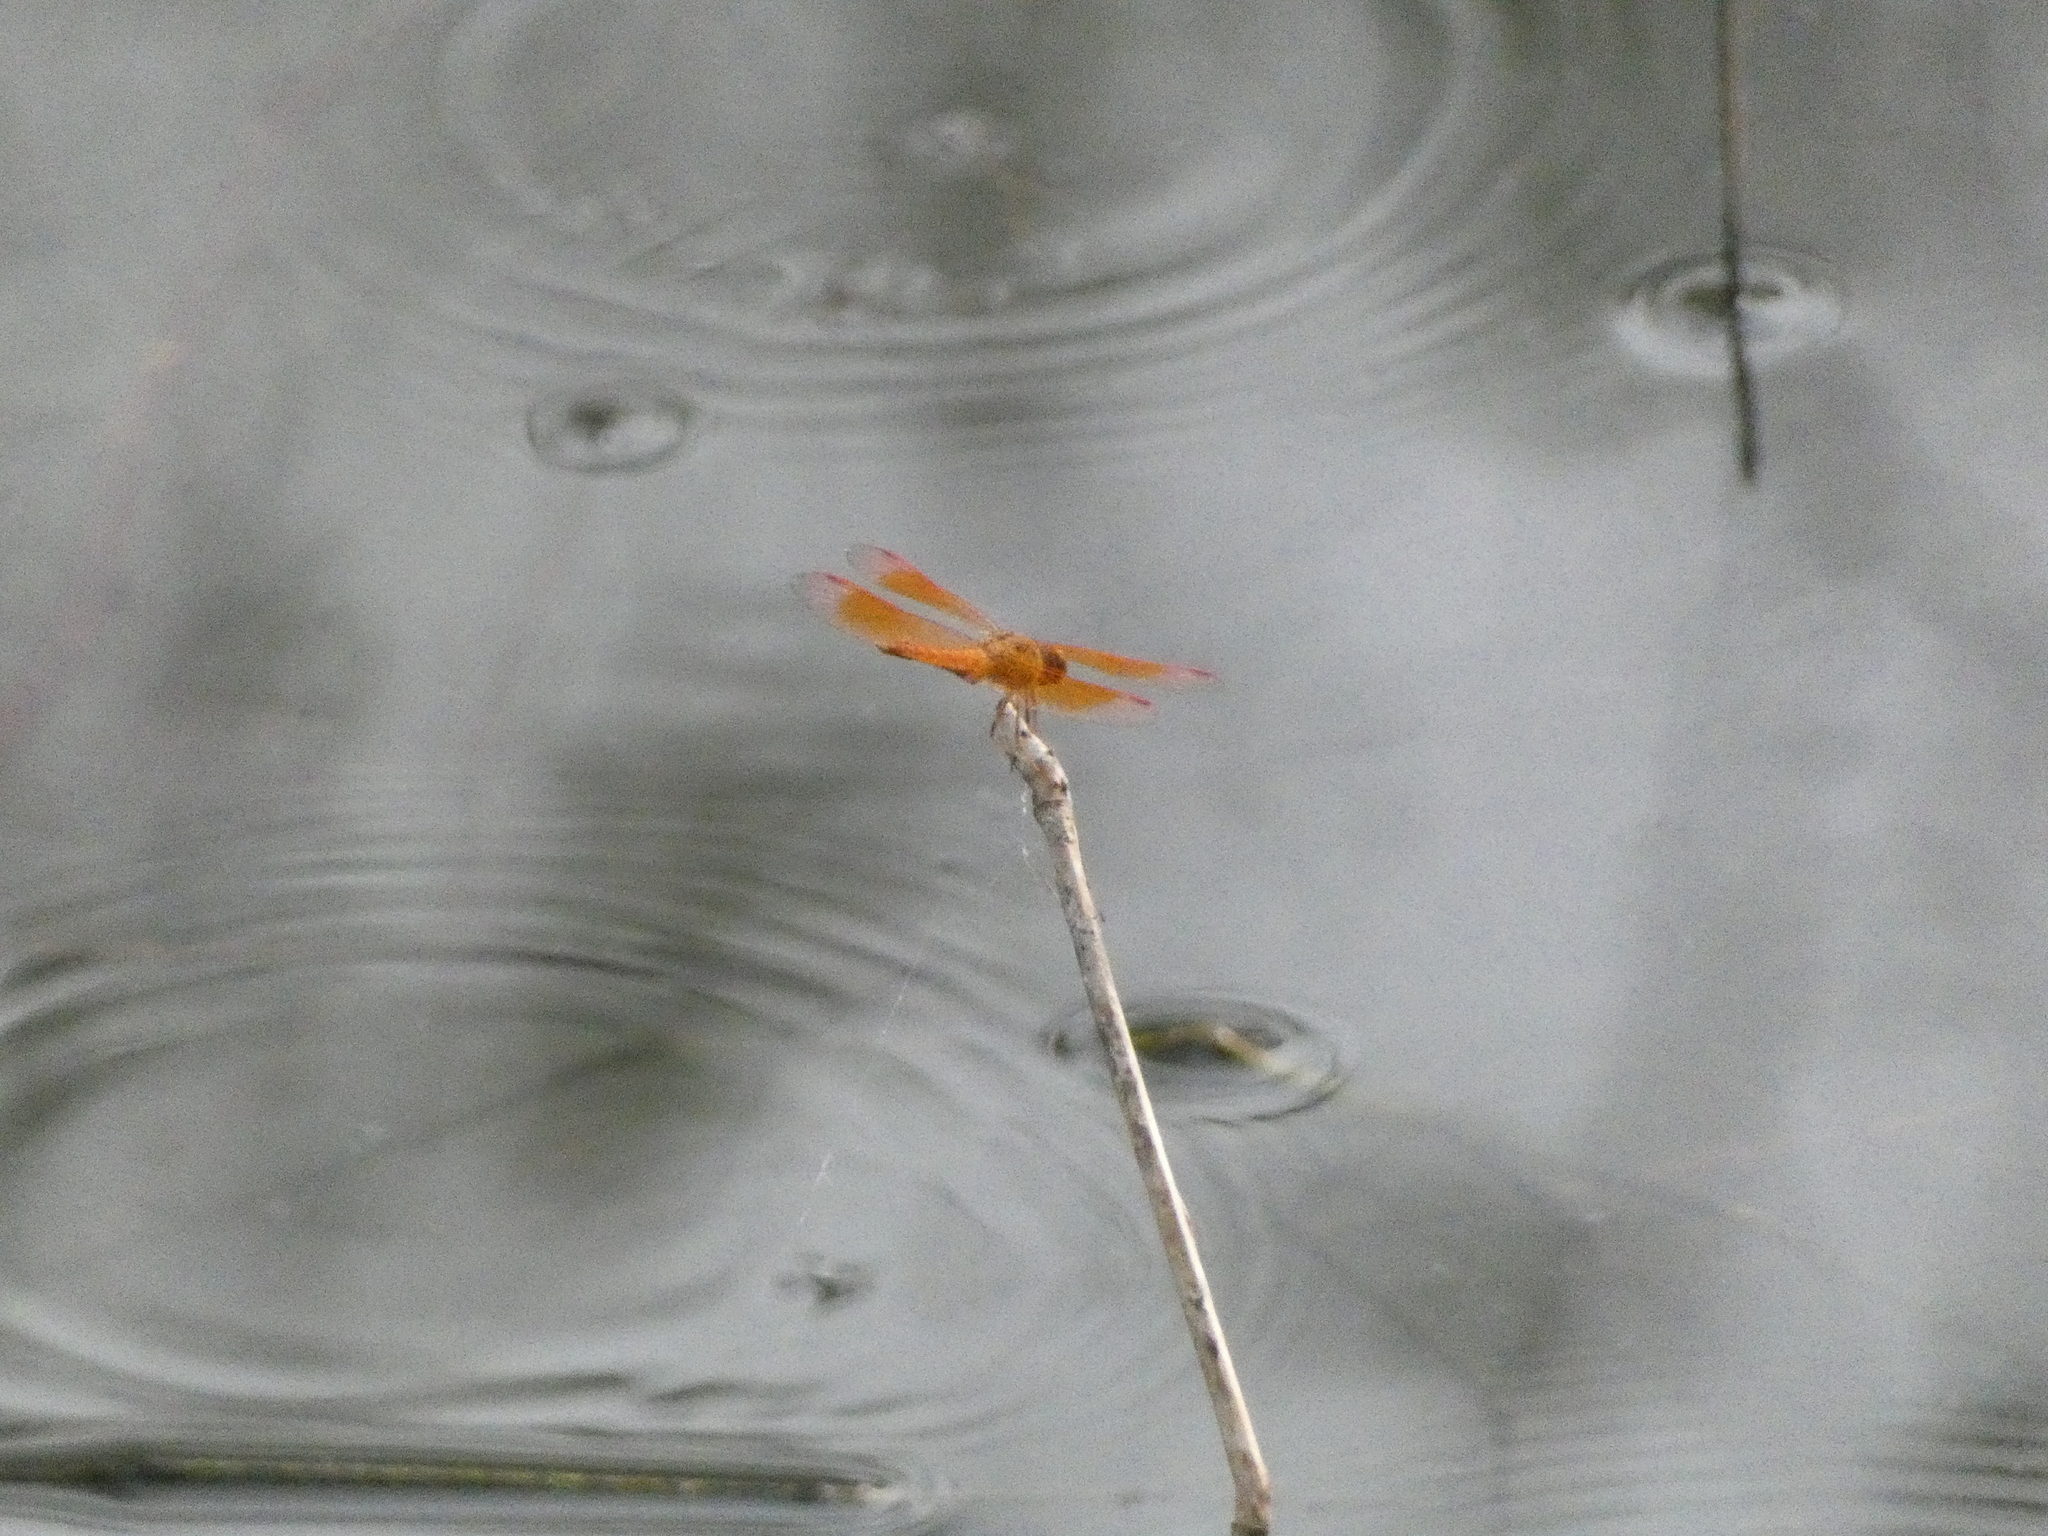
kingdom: Animalia
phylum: Arthropoda
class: Insecta
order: Odonata
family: Libellulidae
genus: Brachythemis
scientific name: Brachythemis contaminata
